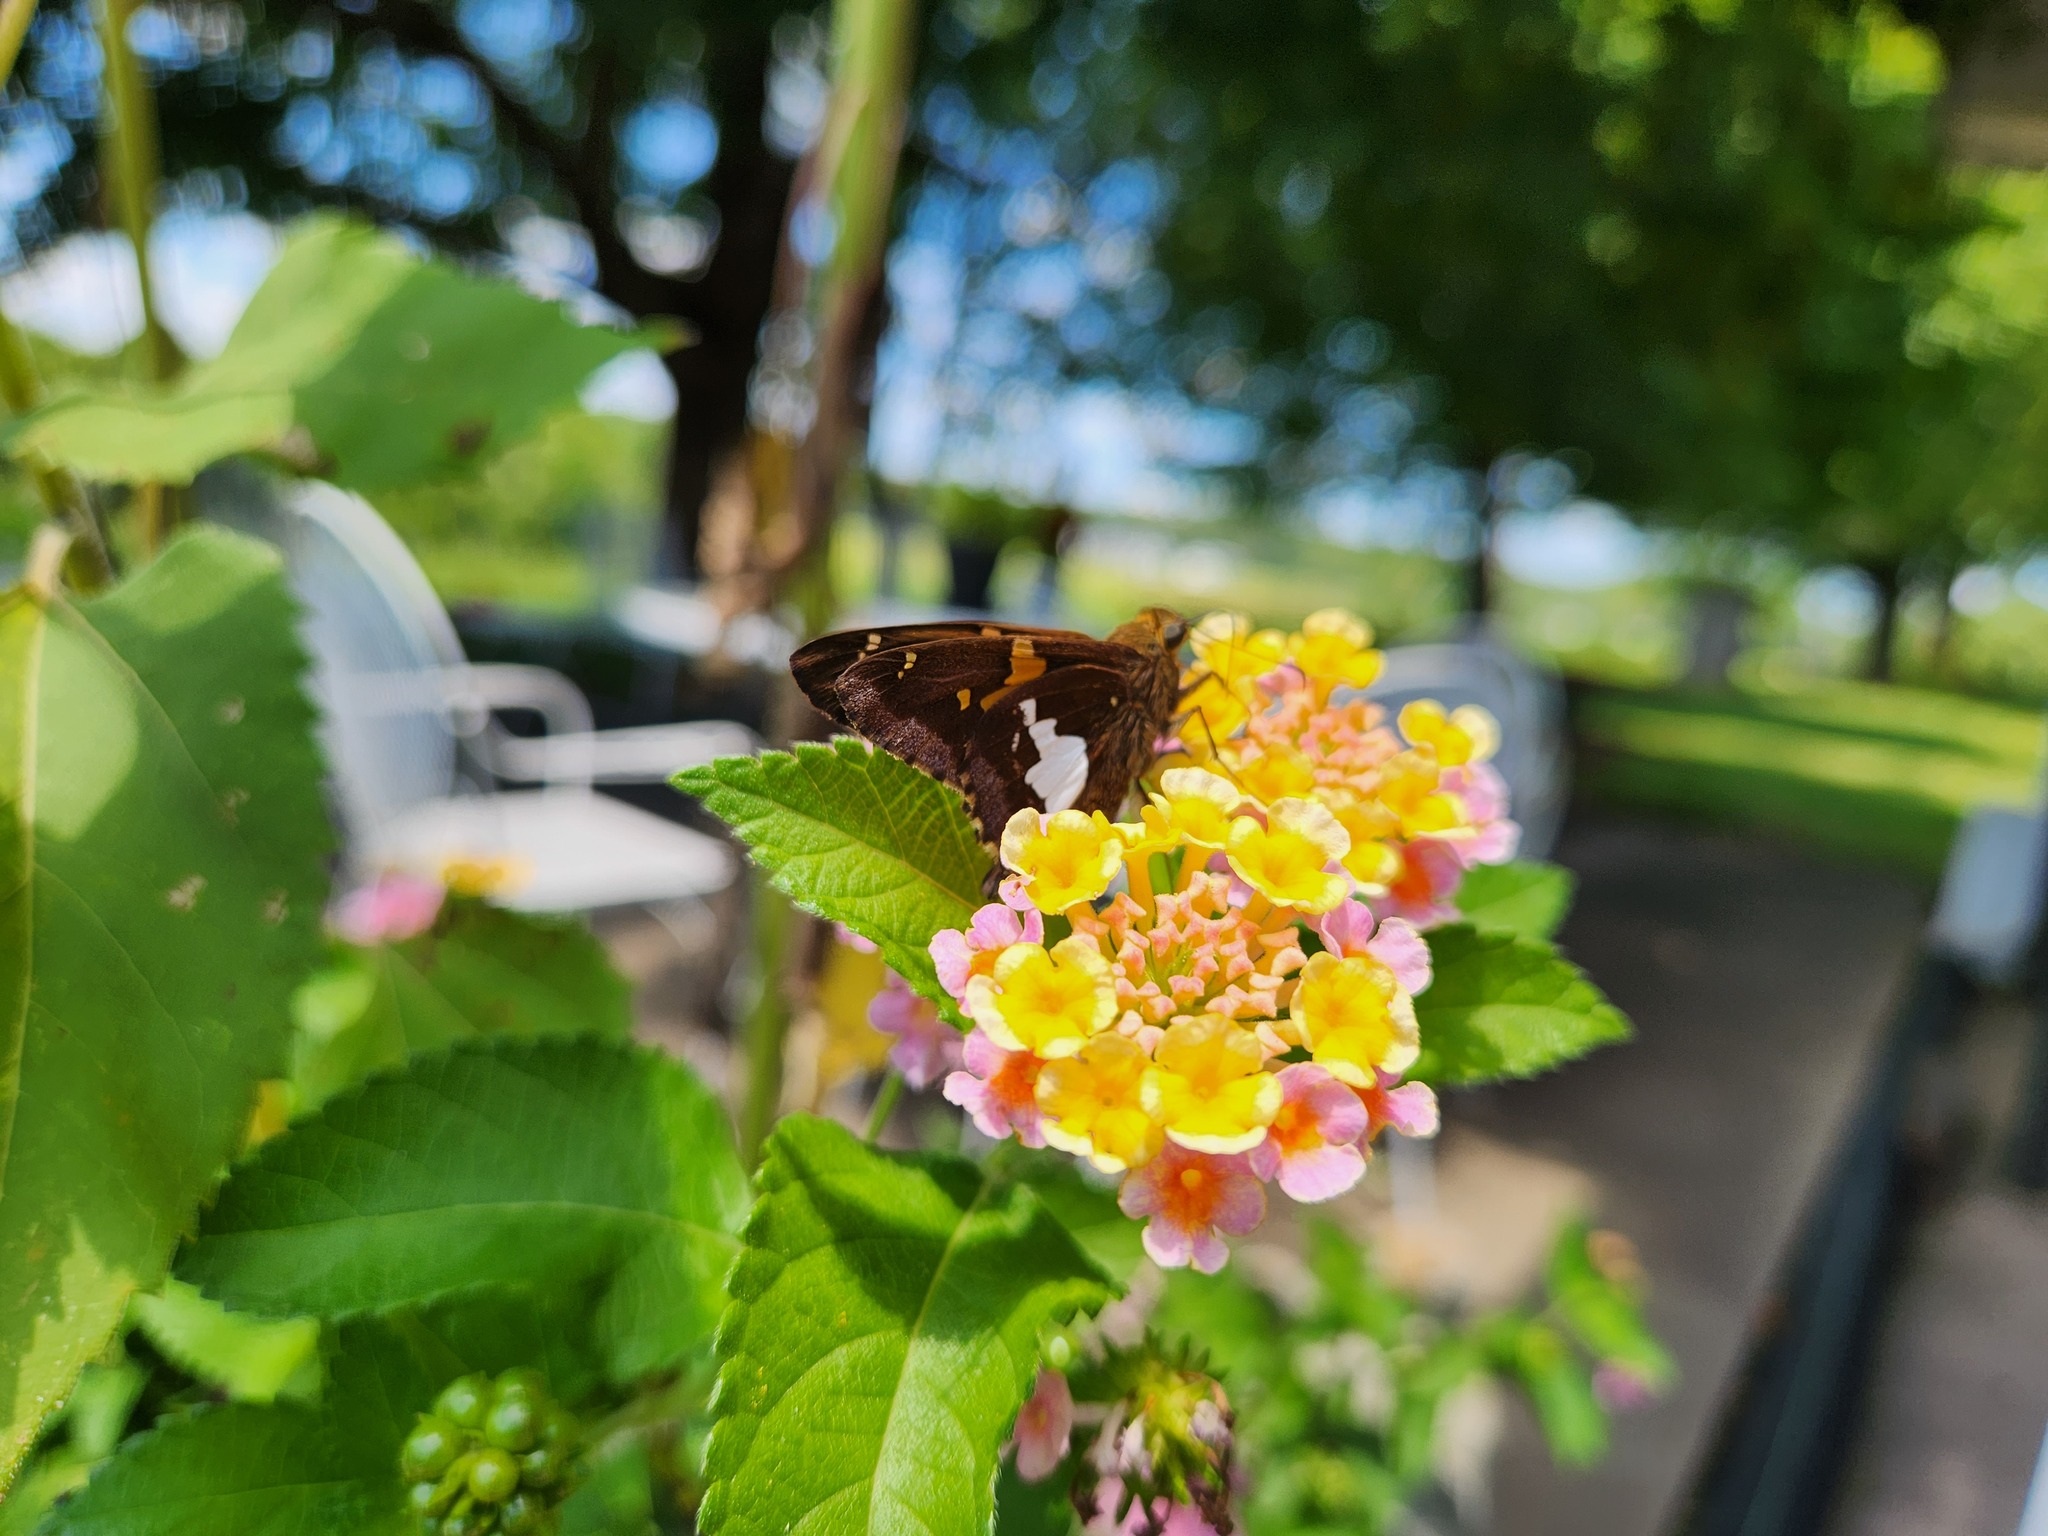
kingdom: Animalia
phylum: Arthropoda
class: Insecta
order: Lepidoptera
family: Hesperiidae
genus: Epargyreus
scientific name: Epargyreus clarus
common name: Silver-spotted skipper
